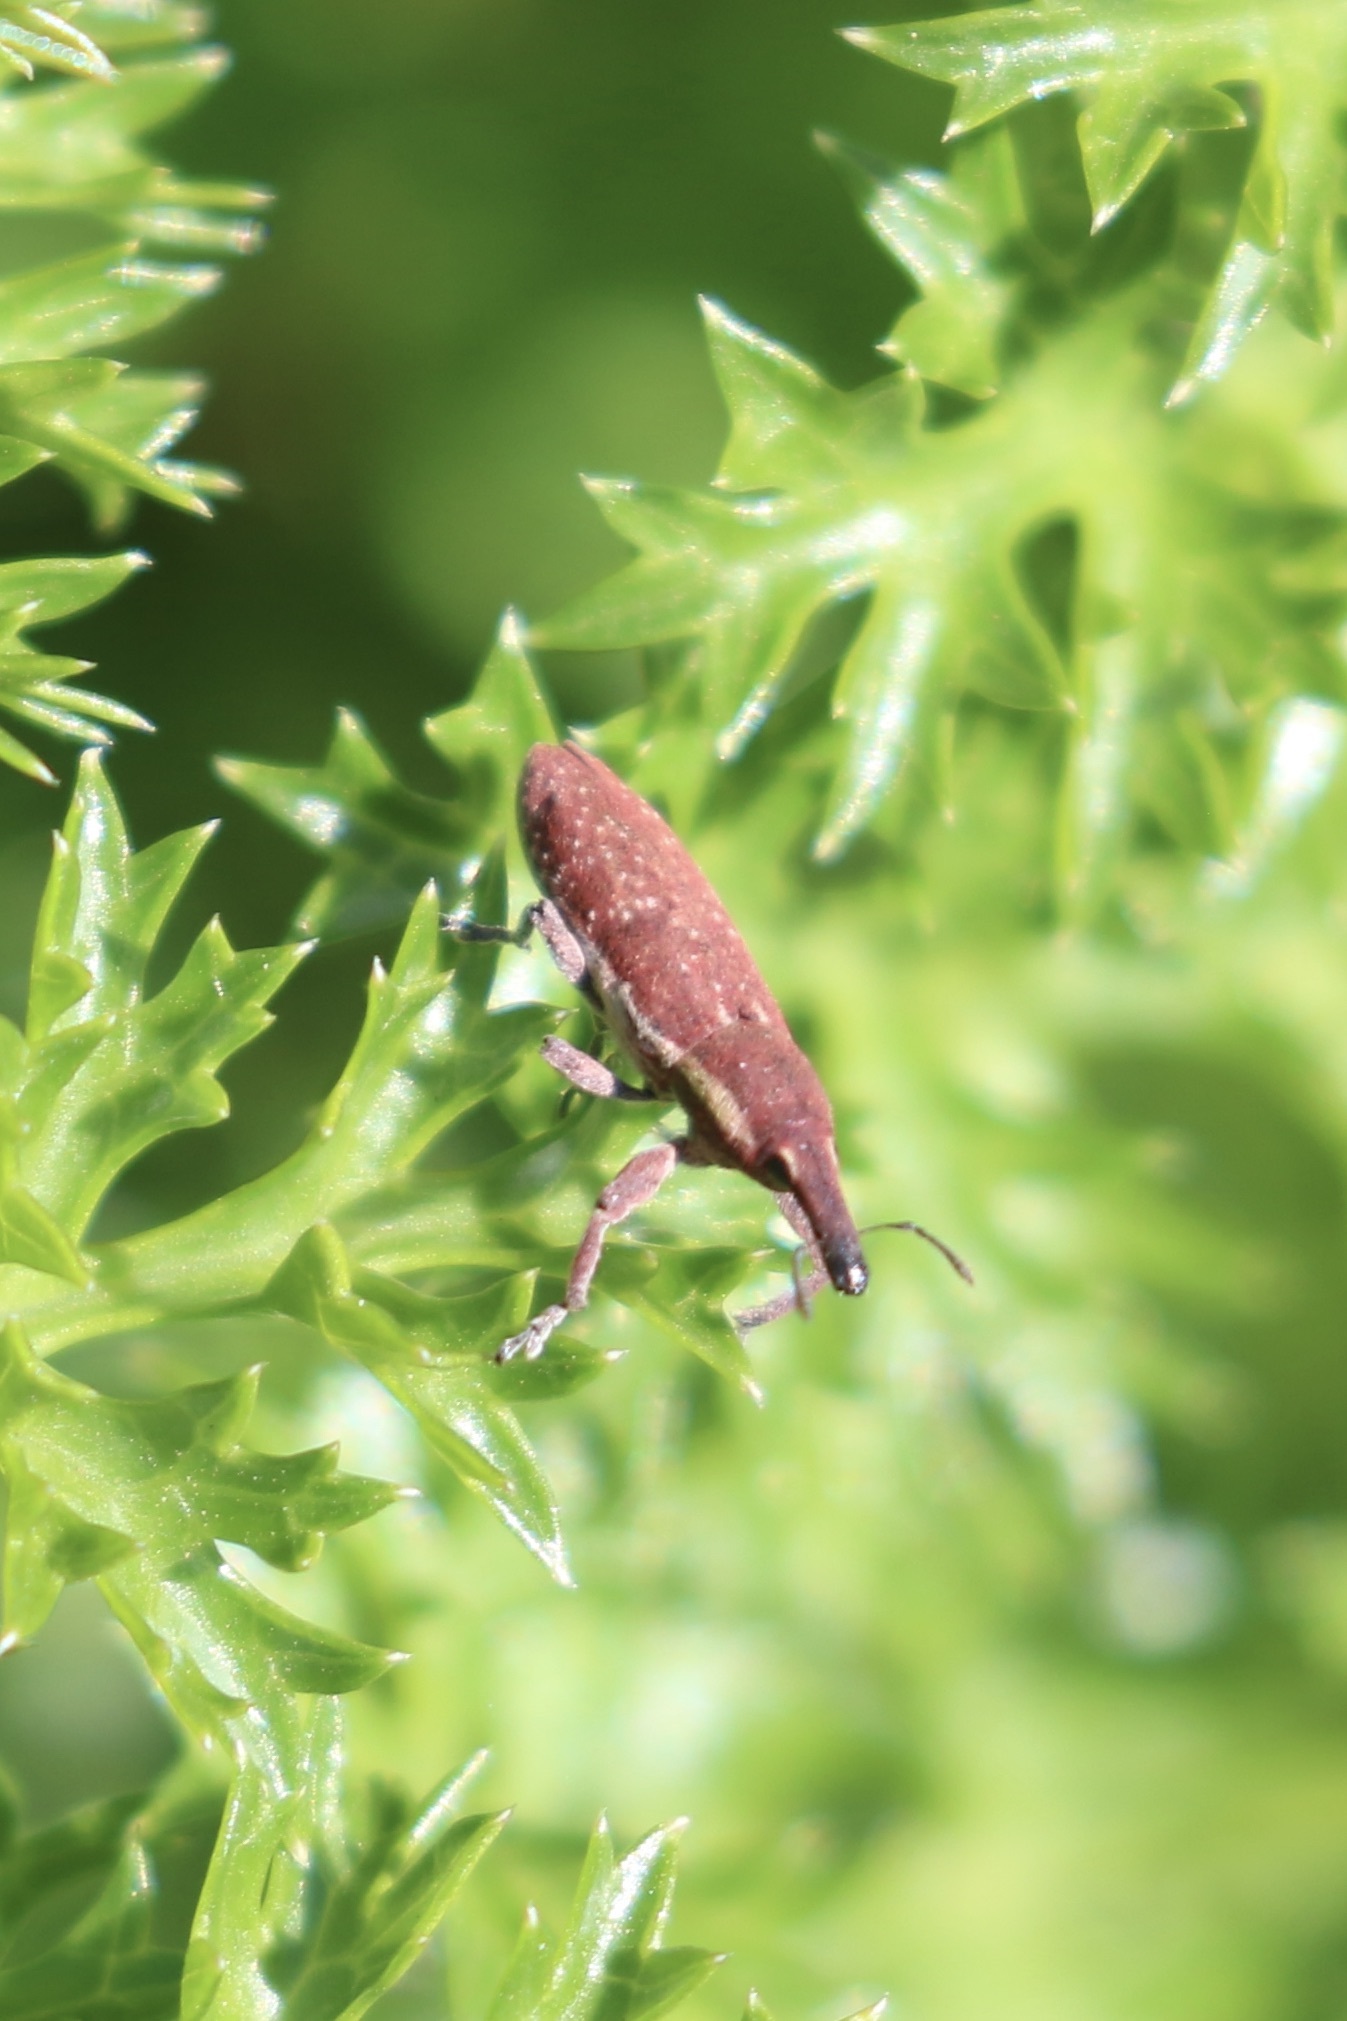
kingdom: Animalia
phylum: Arthropoda
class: Insecta
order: Coleoptera
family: Curculionidae
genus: Lixus
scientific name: Lixus vilis
